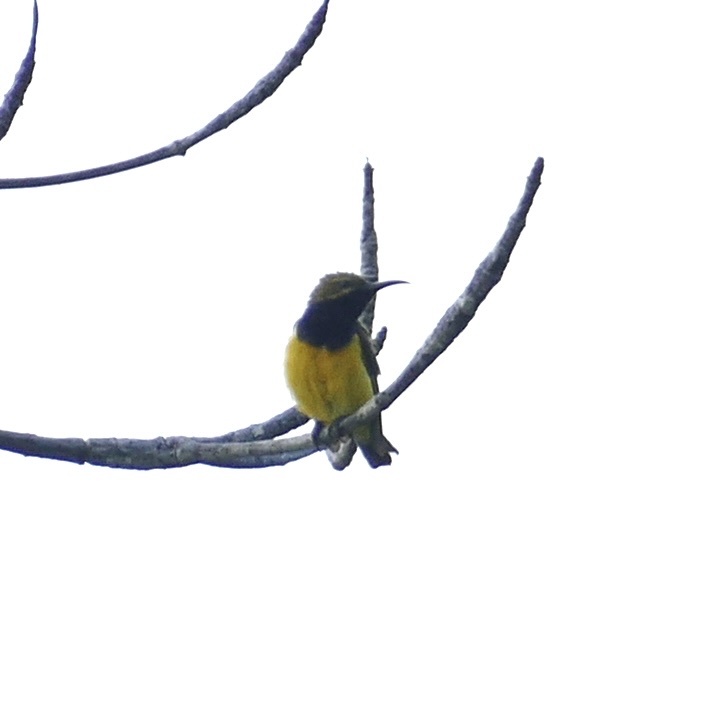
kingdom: Animalia
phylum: Chordata
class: Aves
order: Passeriformes
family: Nectariniidae
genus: Cinnyris
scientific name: Cinnyris
